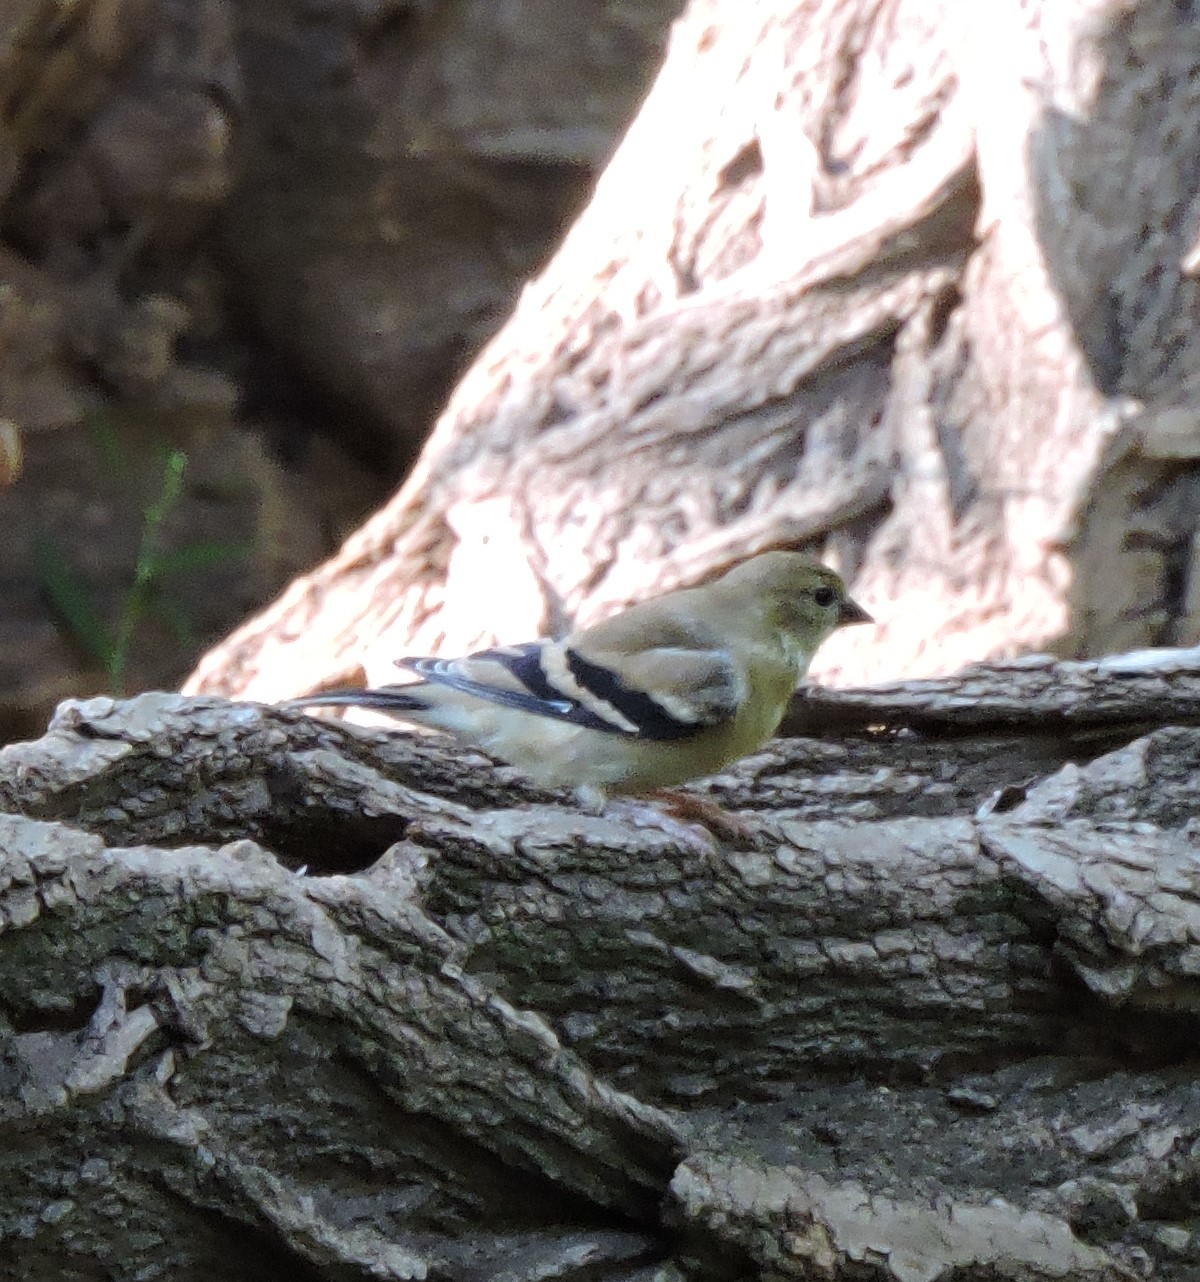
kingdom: Animalia
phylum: Chordata
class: Aves
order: Passeriformes
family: Fringillidae
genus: Spinus
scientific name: Spinus tristis
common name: American goldfinch
